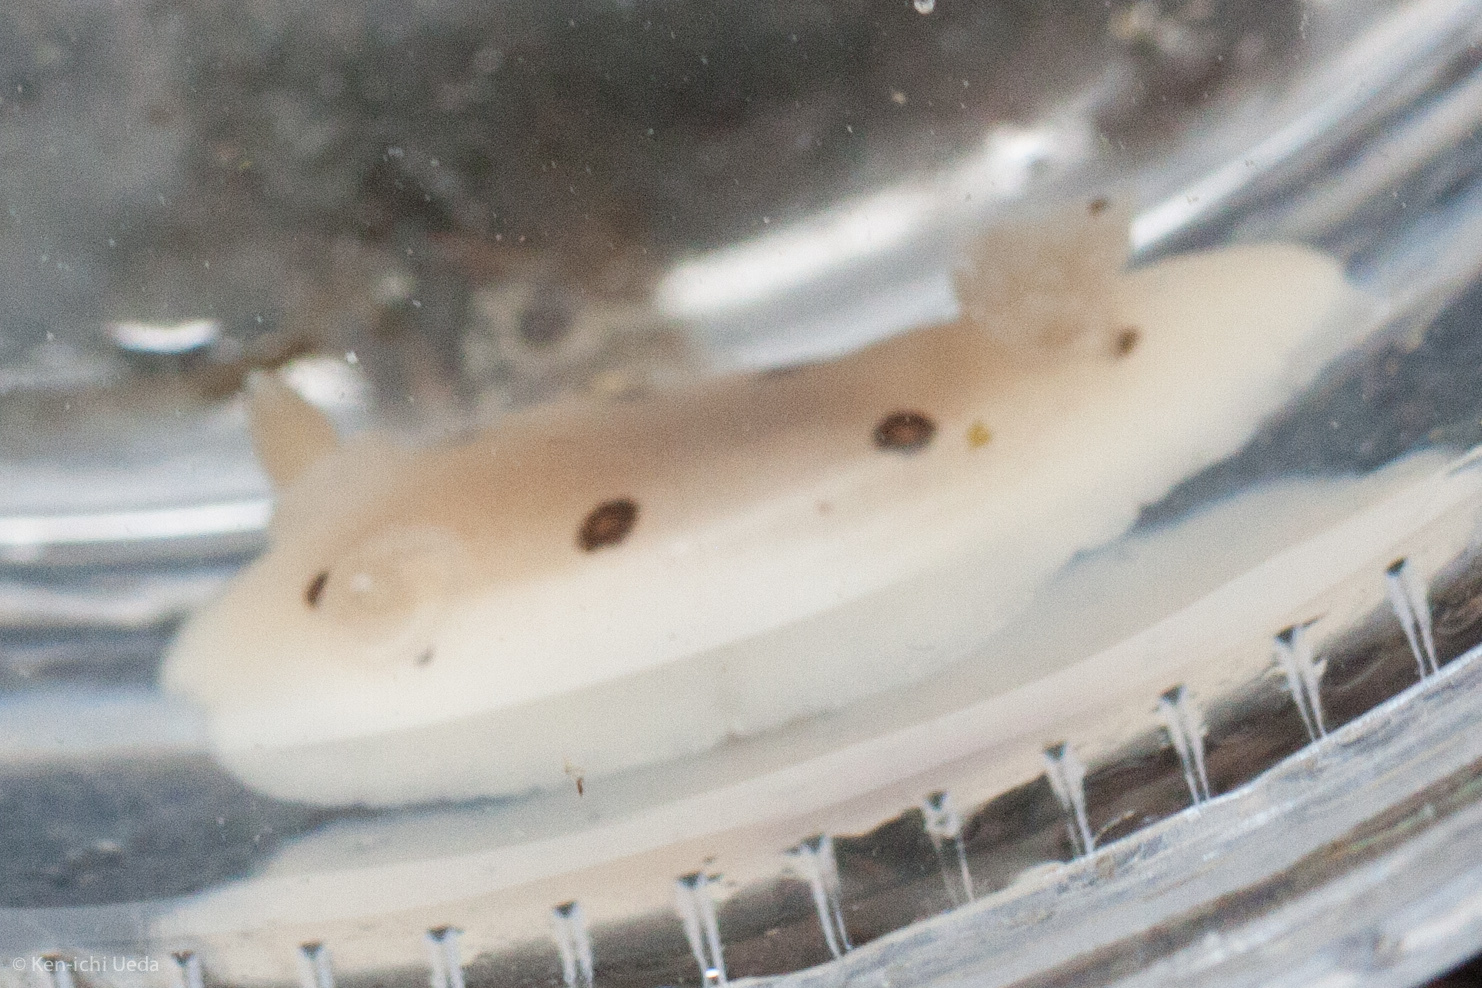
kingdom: Animalia
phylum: Mollusca
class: Gastropoda
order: Nudibranchia
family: Discodorididae
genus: Diaulula
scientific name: Diaulula sandiegensis
